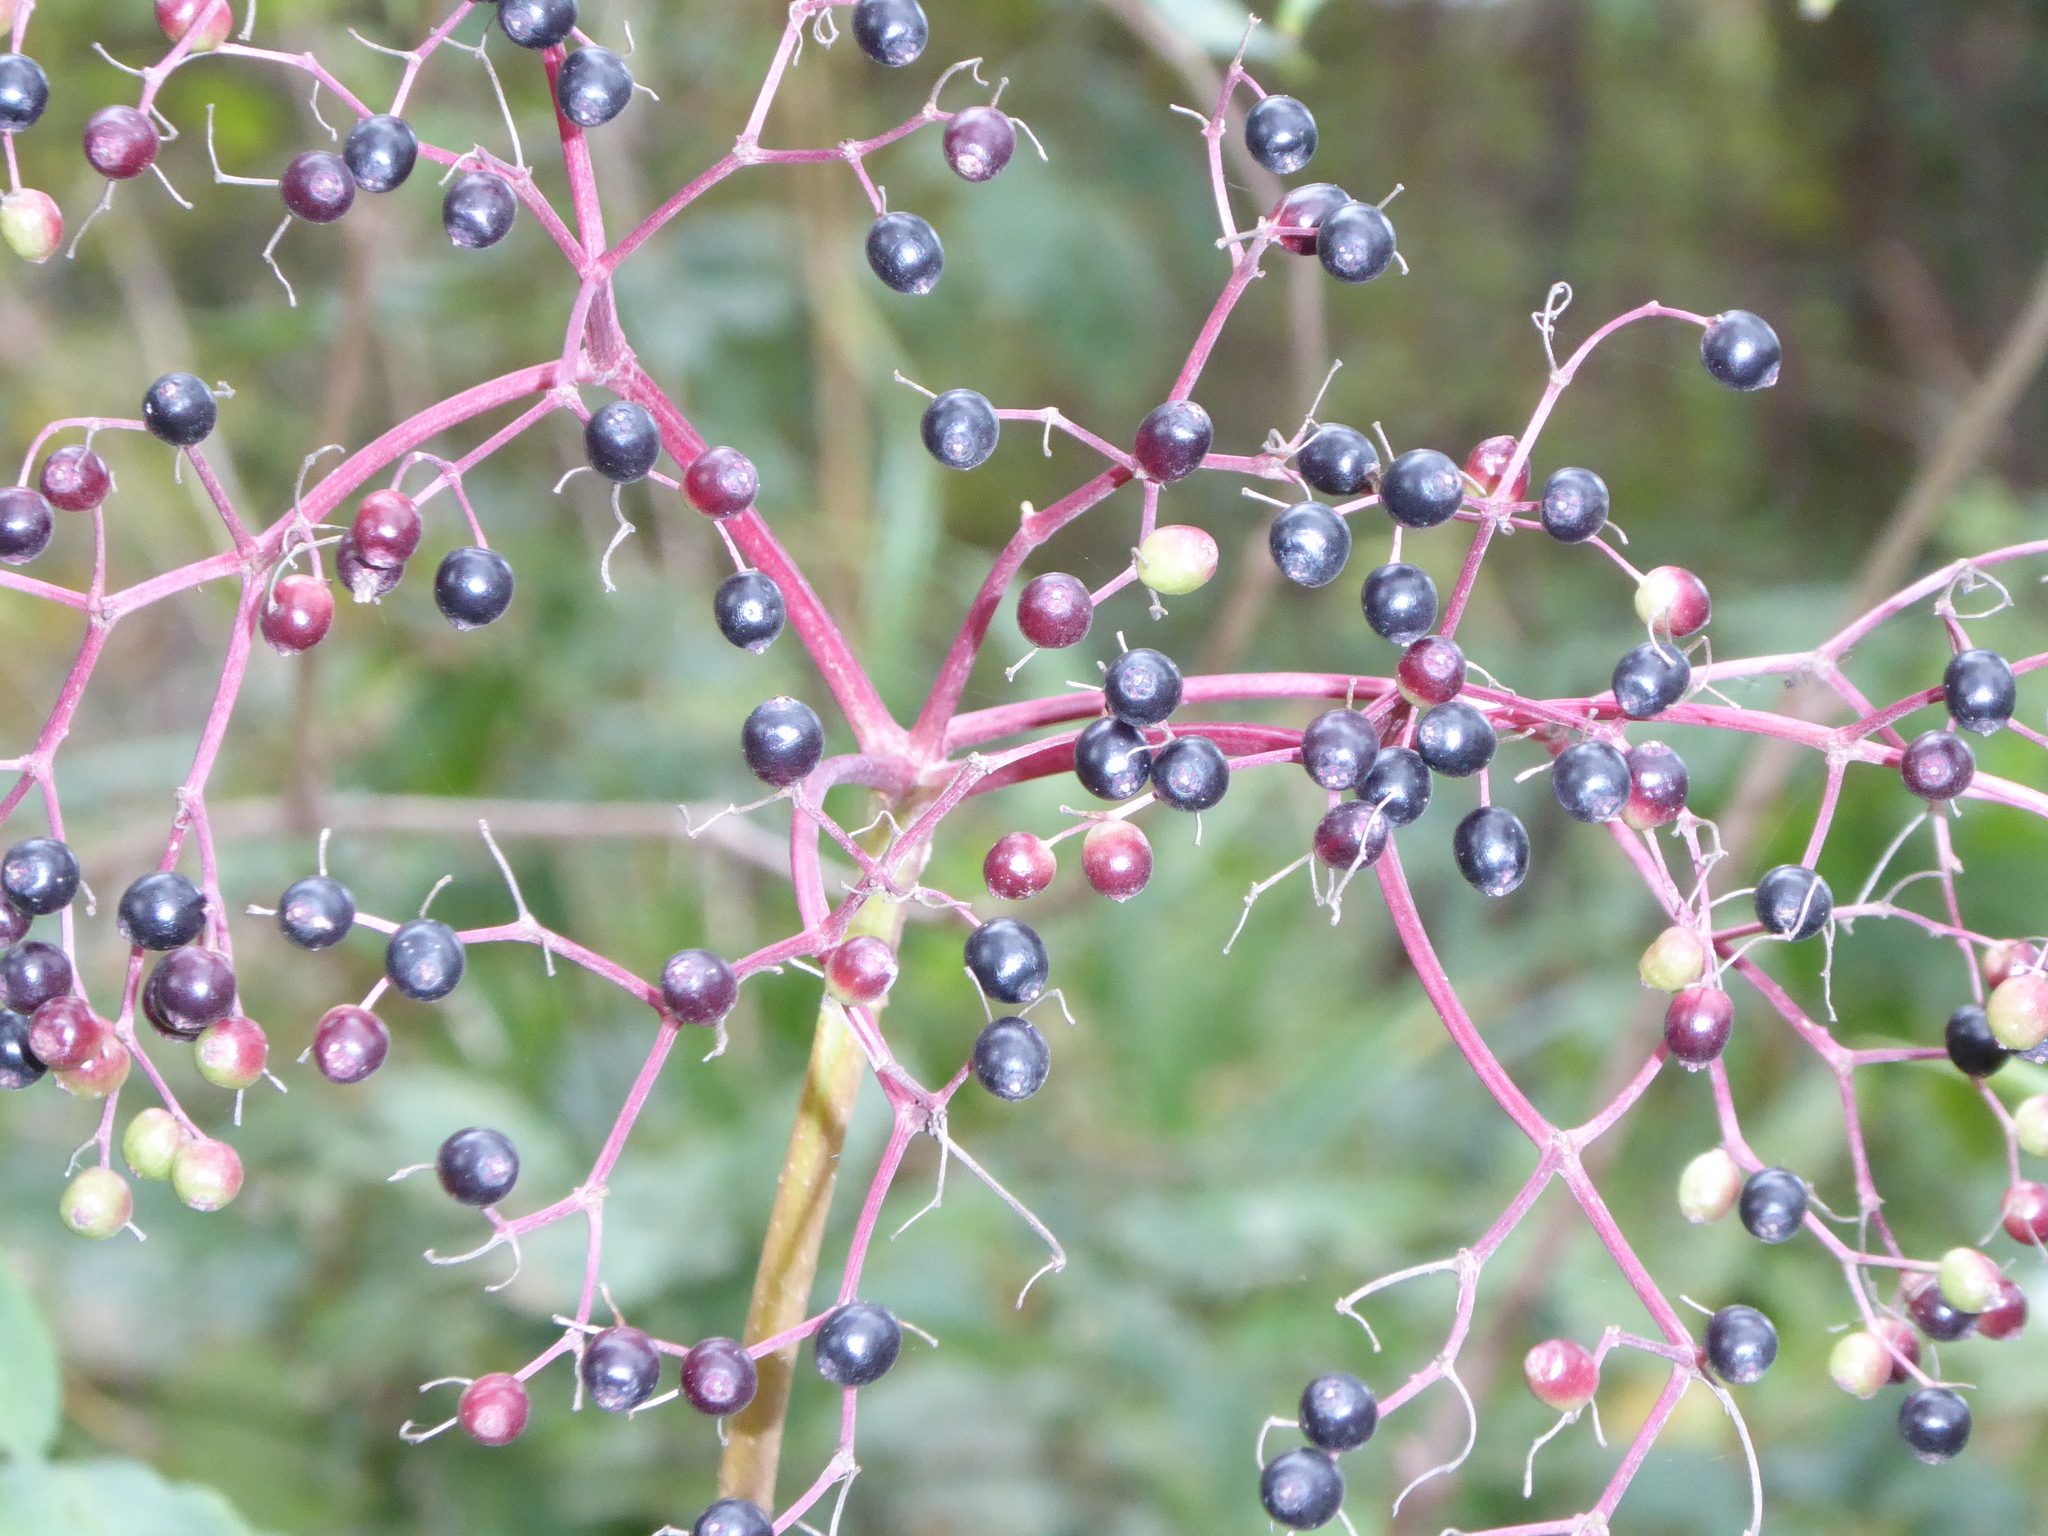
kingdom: Plantae
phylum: Tracheophyta
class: Magnoliopsida
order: Dipsacales
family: Viburnaceae
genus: Sambucus
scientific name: Sambucus nigra
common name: Elder
